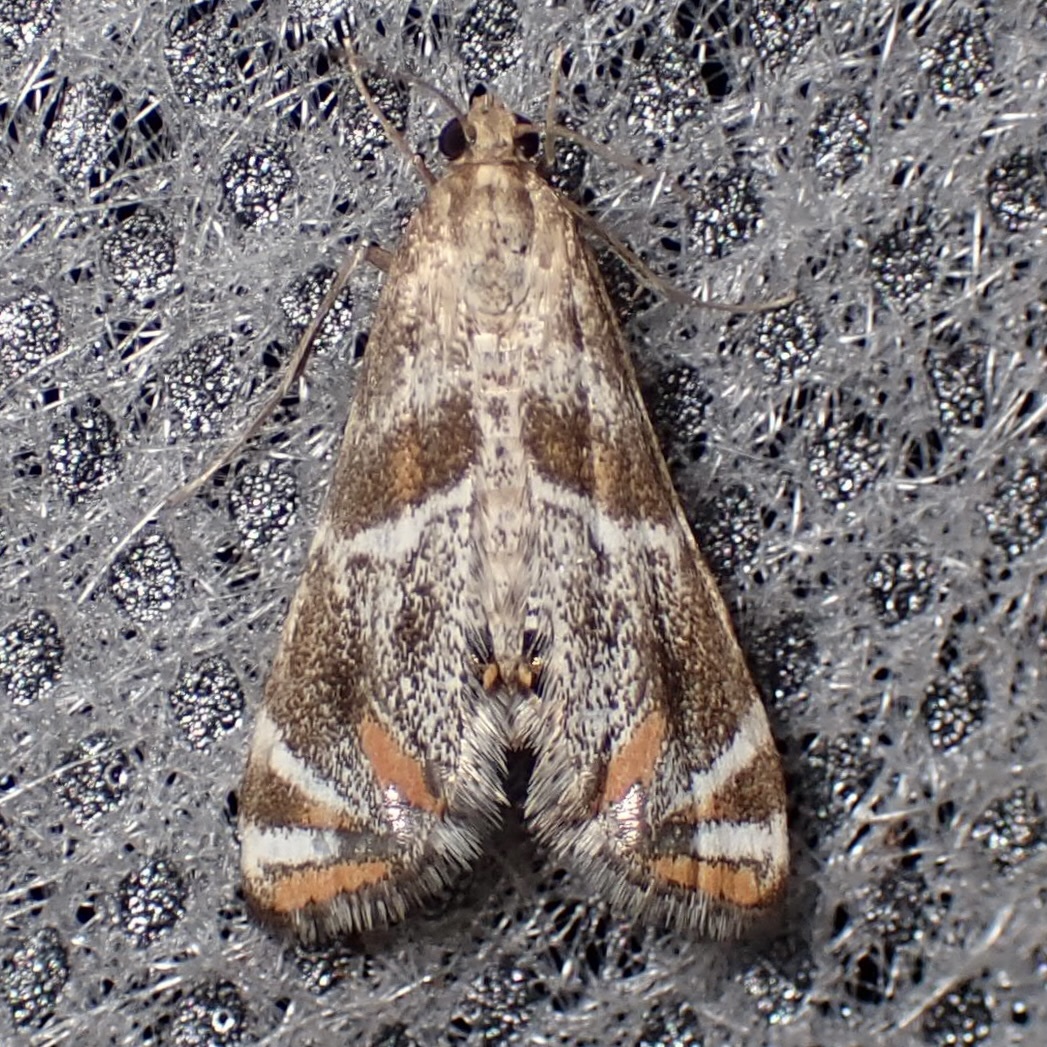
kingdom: Animalia
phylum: Arthropoda
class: Insecta
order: Lepidoptera
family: Crambidae
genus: Petrophila
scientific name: Petrophila jaliscalis
